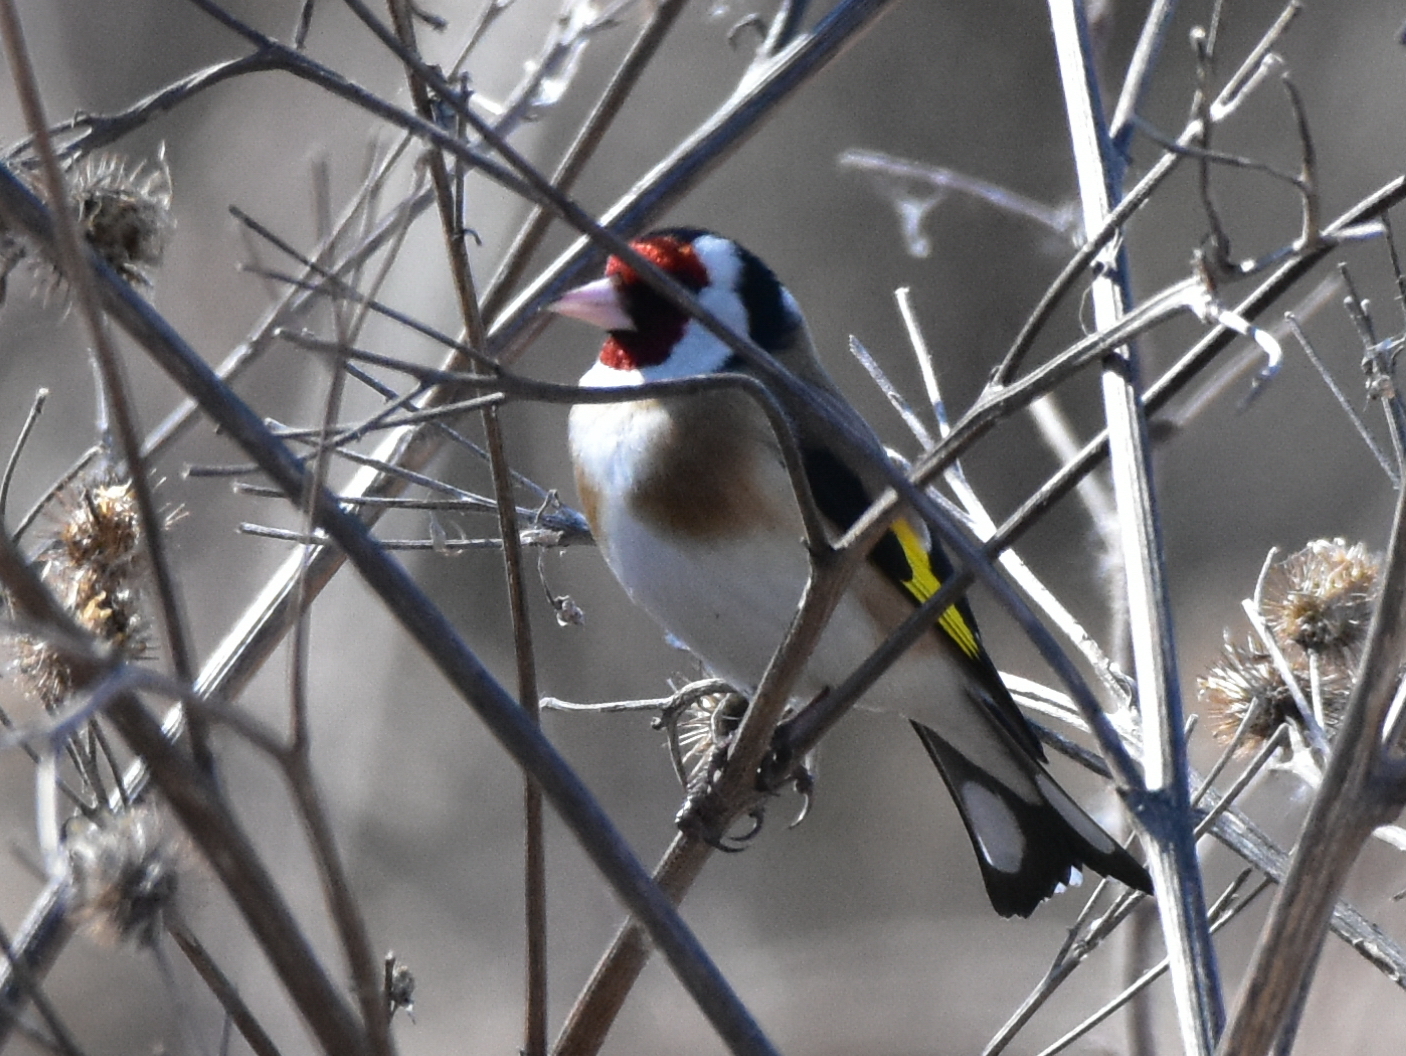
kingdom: Animalia
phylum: Chordata
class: Aves
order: Passeriformes
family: Fringillidae
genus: Carduelis
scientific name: Carduelis carduelis
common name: European goldfinch
